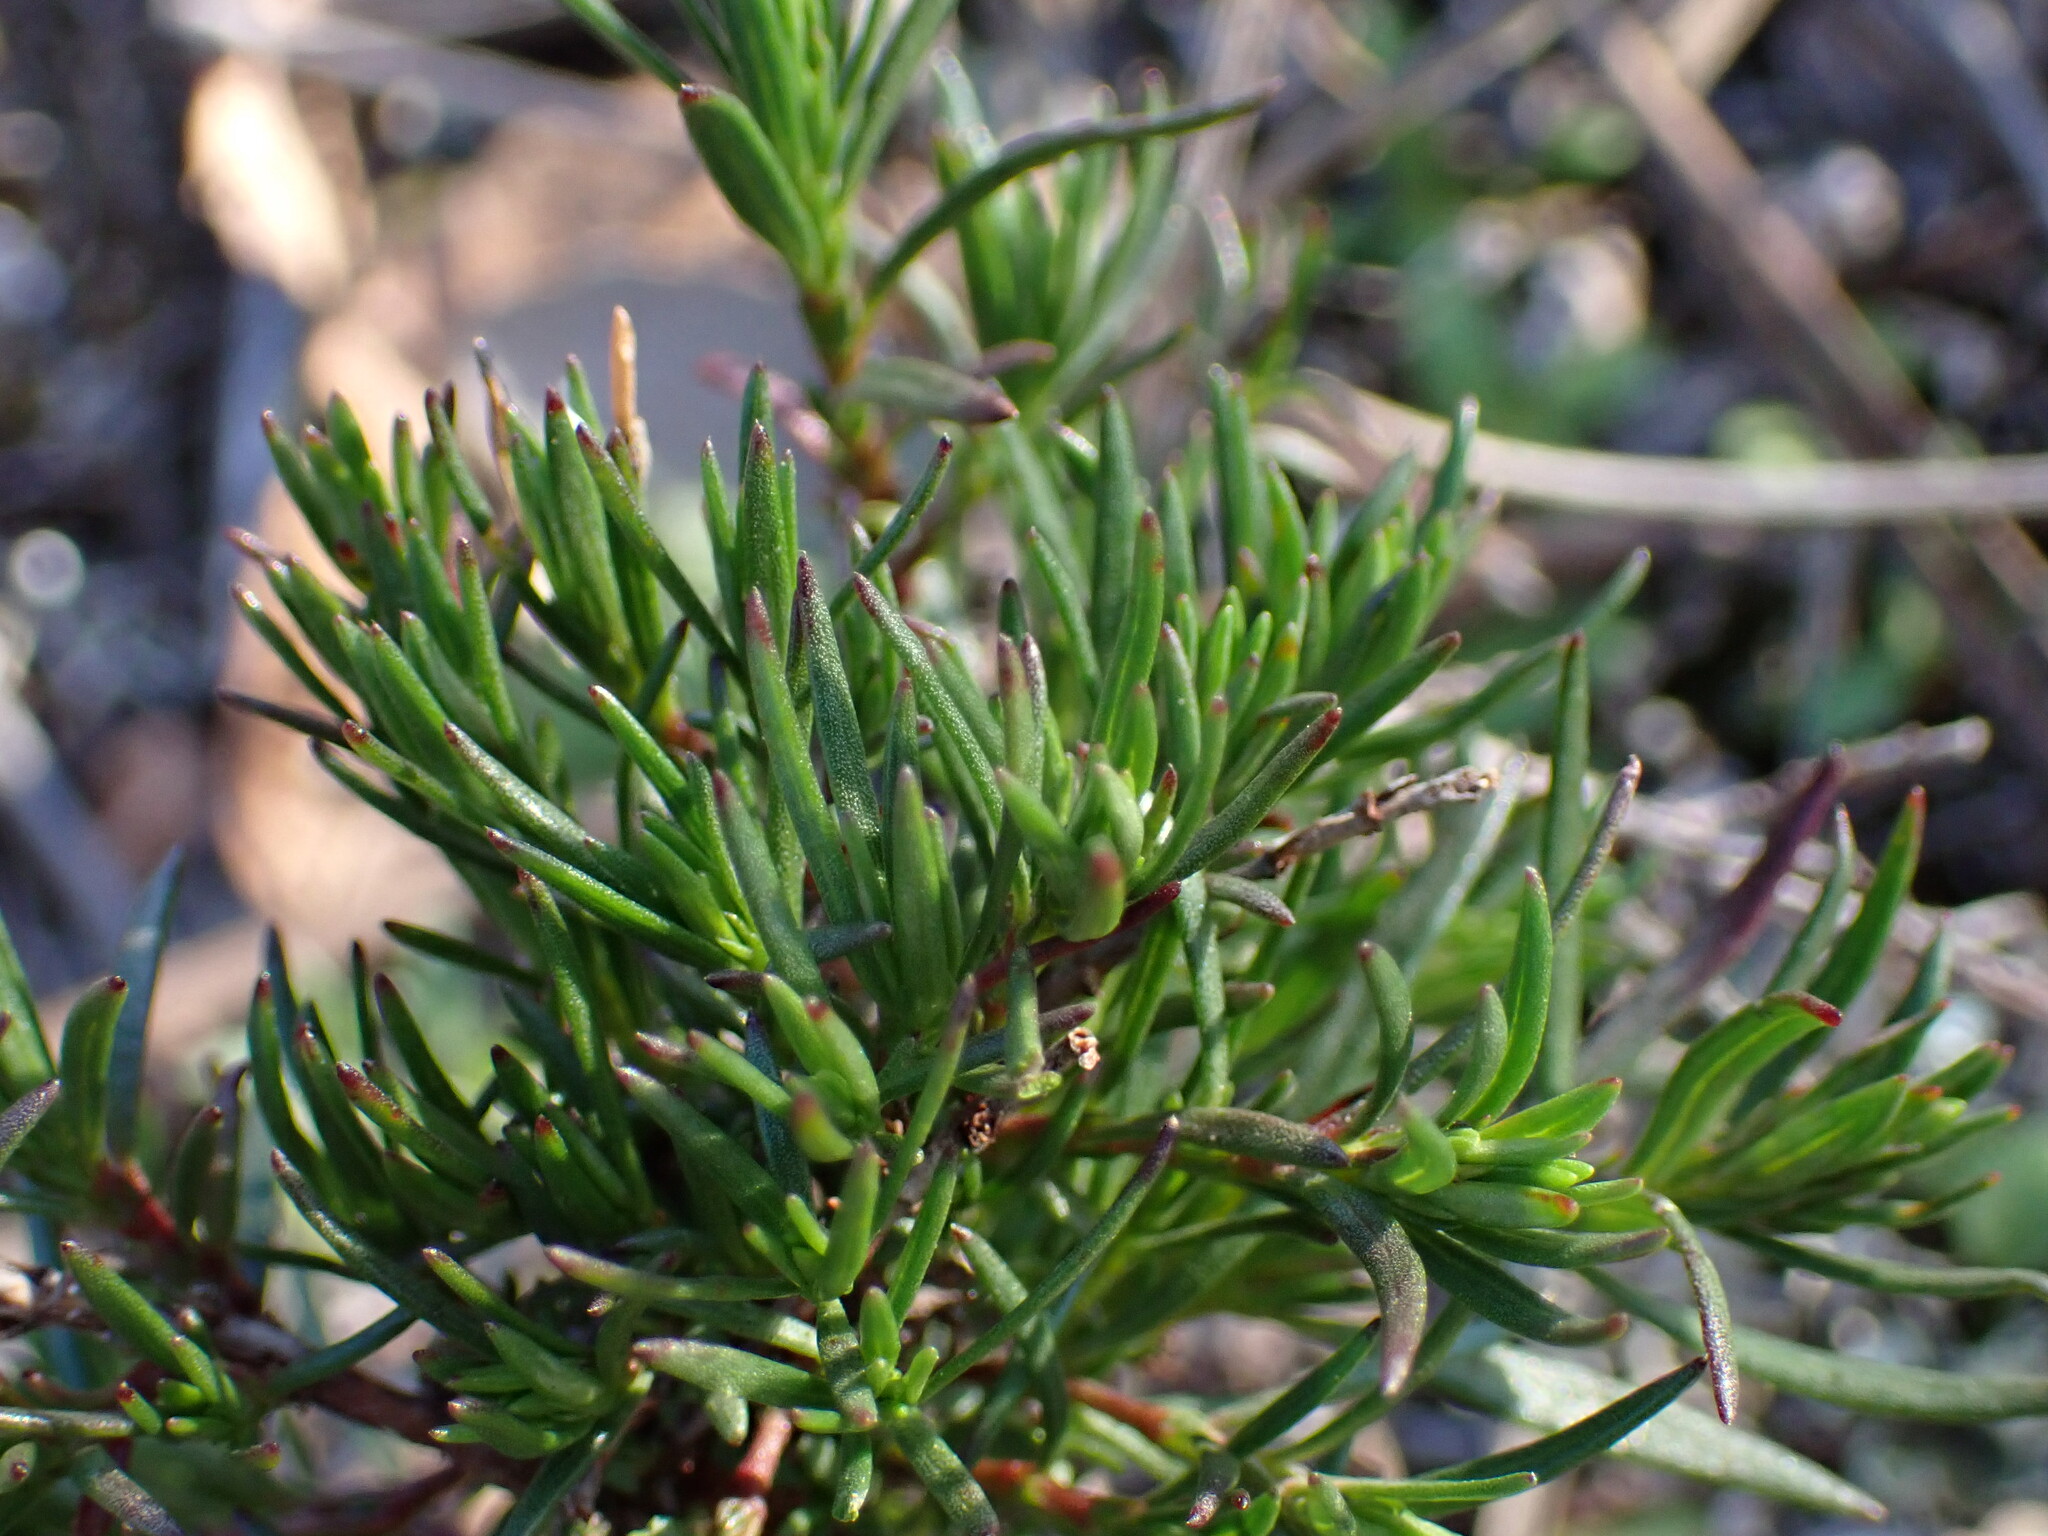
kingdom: Plantae
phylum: Tracheophyta
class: Magnoliopsida
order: Malvales
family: Cistaceae
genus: Fumana
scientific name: Fumana juniperina
